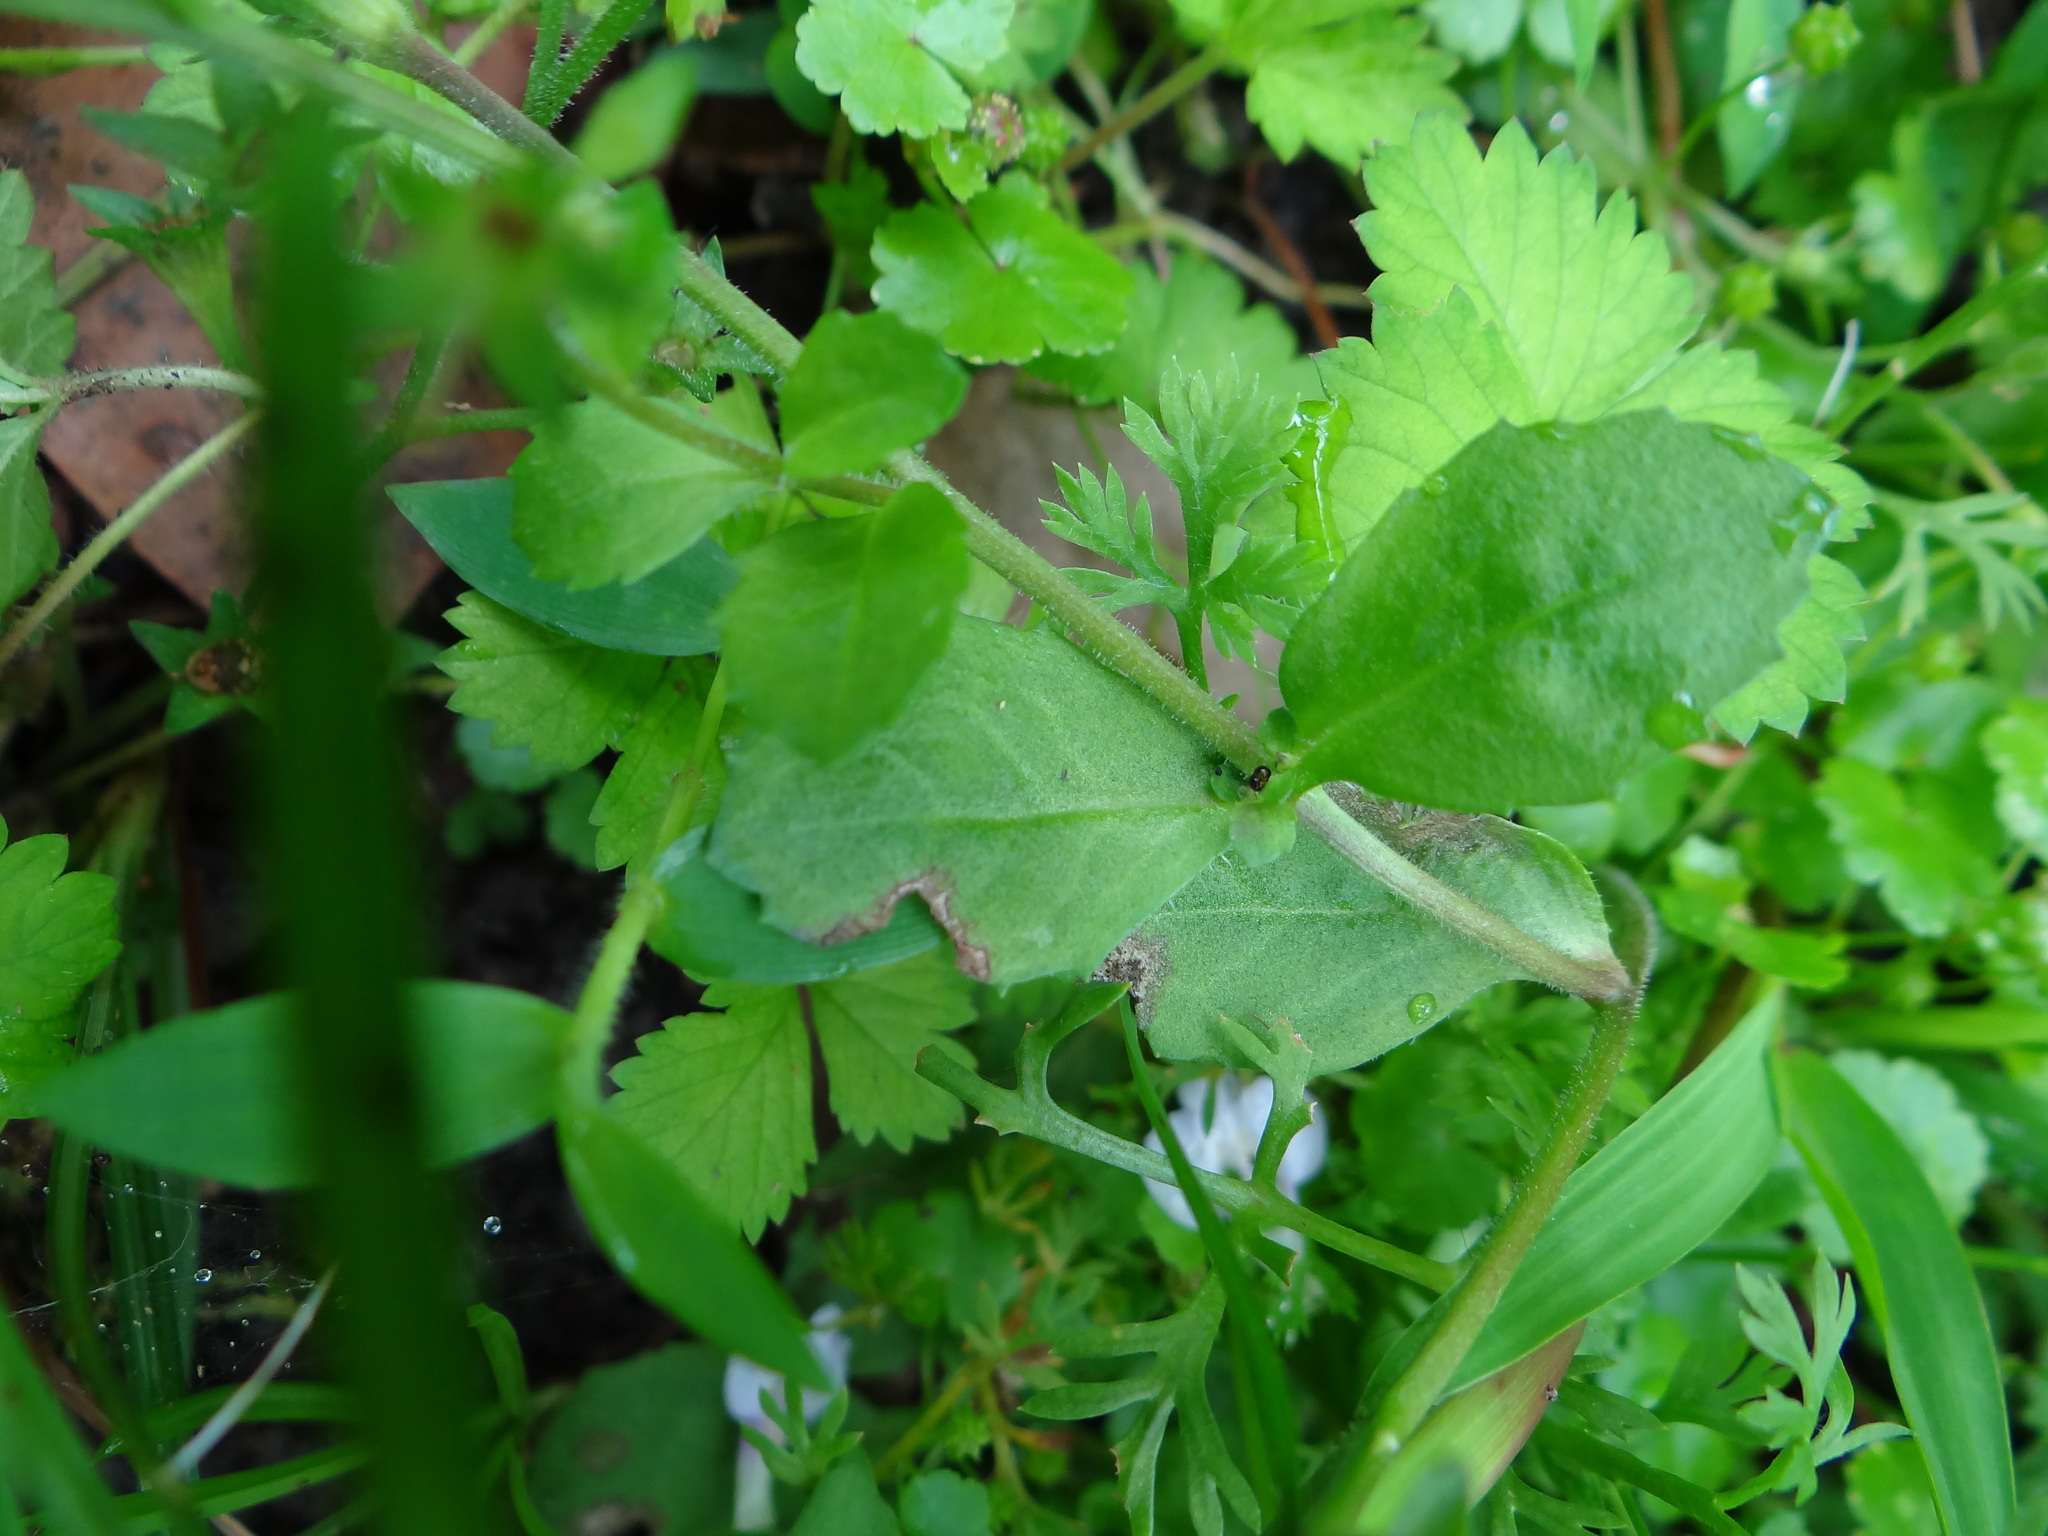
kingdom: Plantae
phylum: Tracheophyta
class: Magnoliopsida
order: Lamiales
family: Mazaceae
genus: Mazus
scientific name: Mazus pumilus
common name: Japanese mazus
